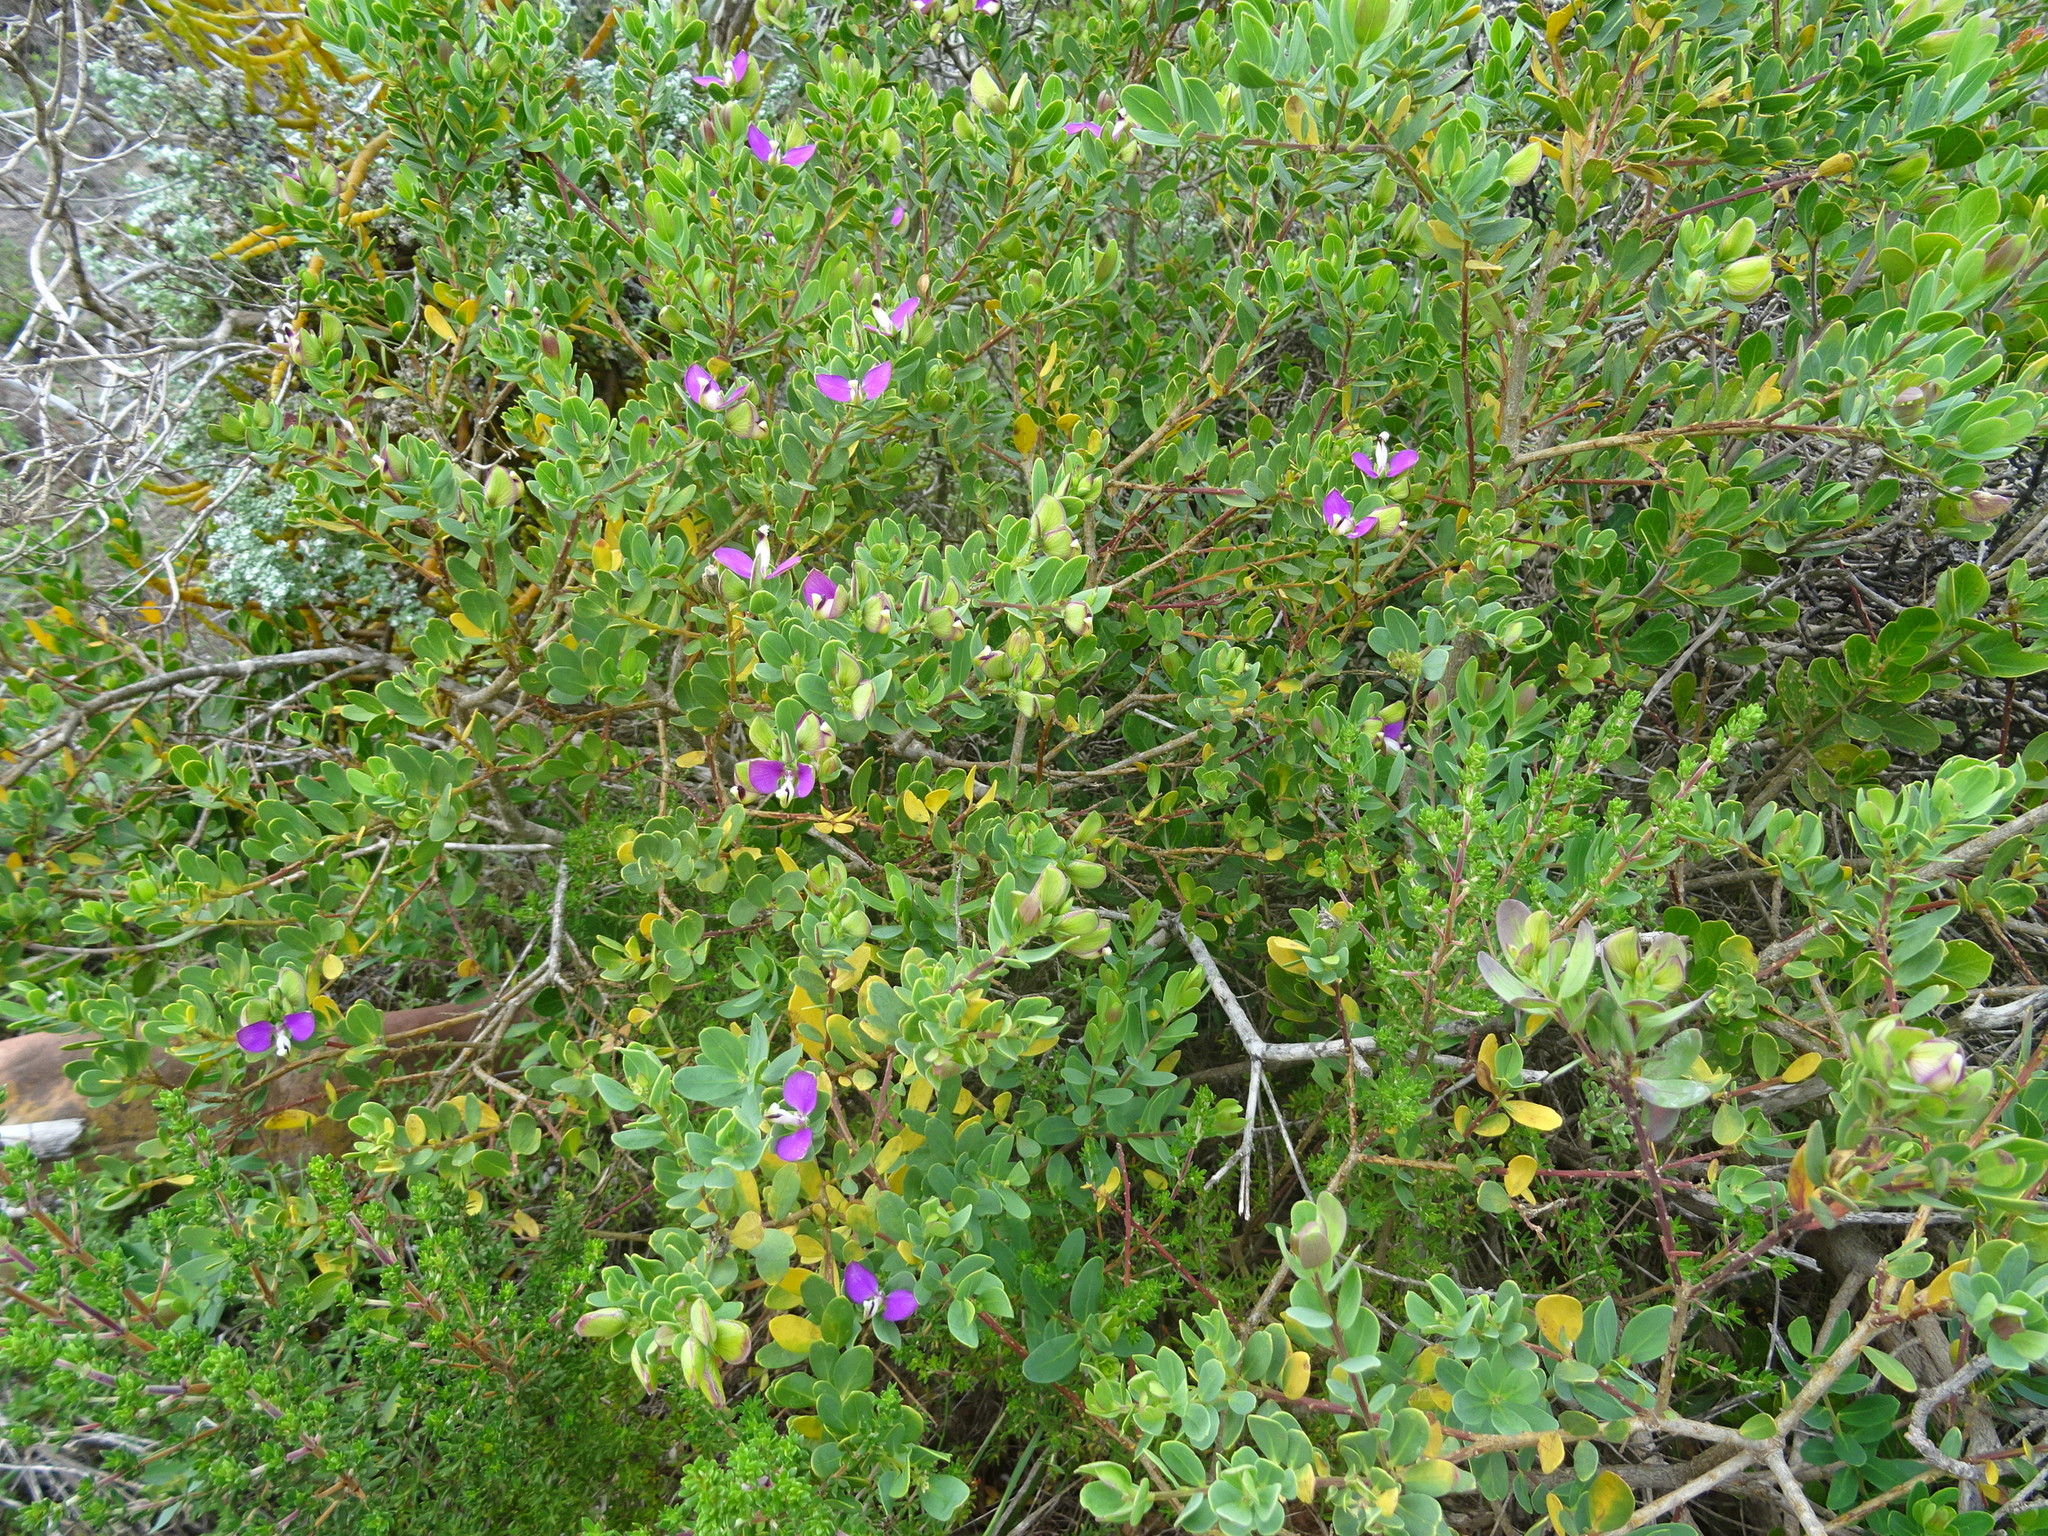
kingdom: Plantae
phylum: Tracheophyta
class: Magnoliopsida
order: Fabales
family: Polygalaceae
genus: Polygala
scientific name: Polygala myrtifolia
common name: Myrtle-leaf milkwort
